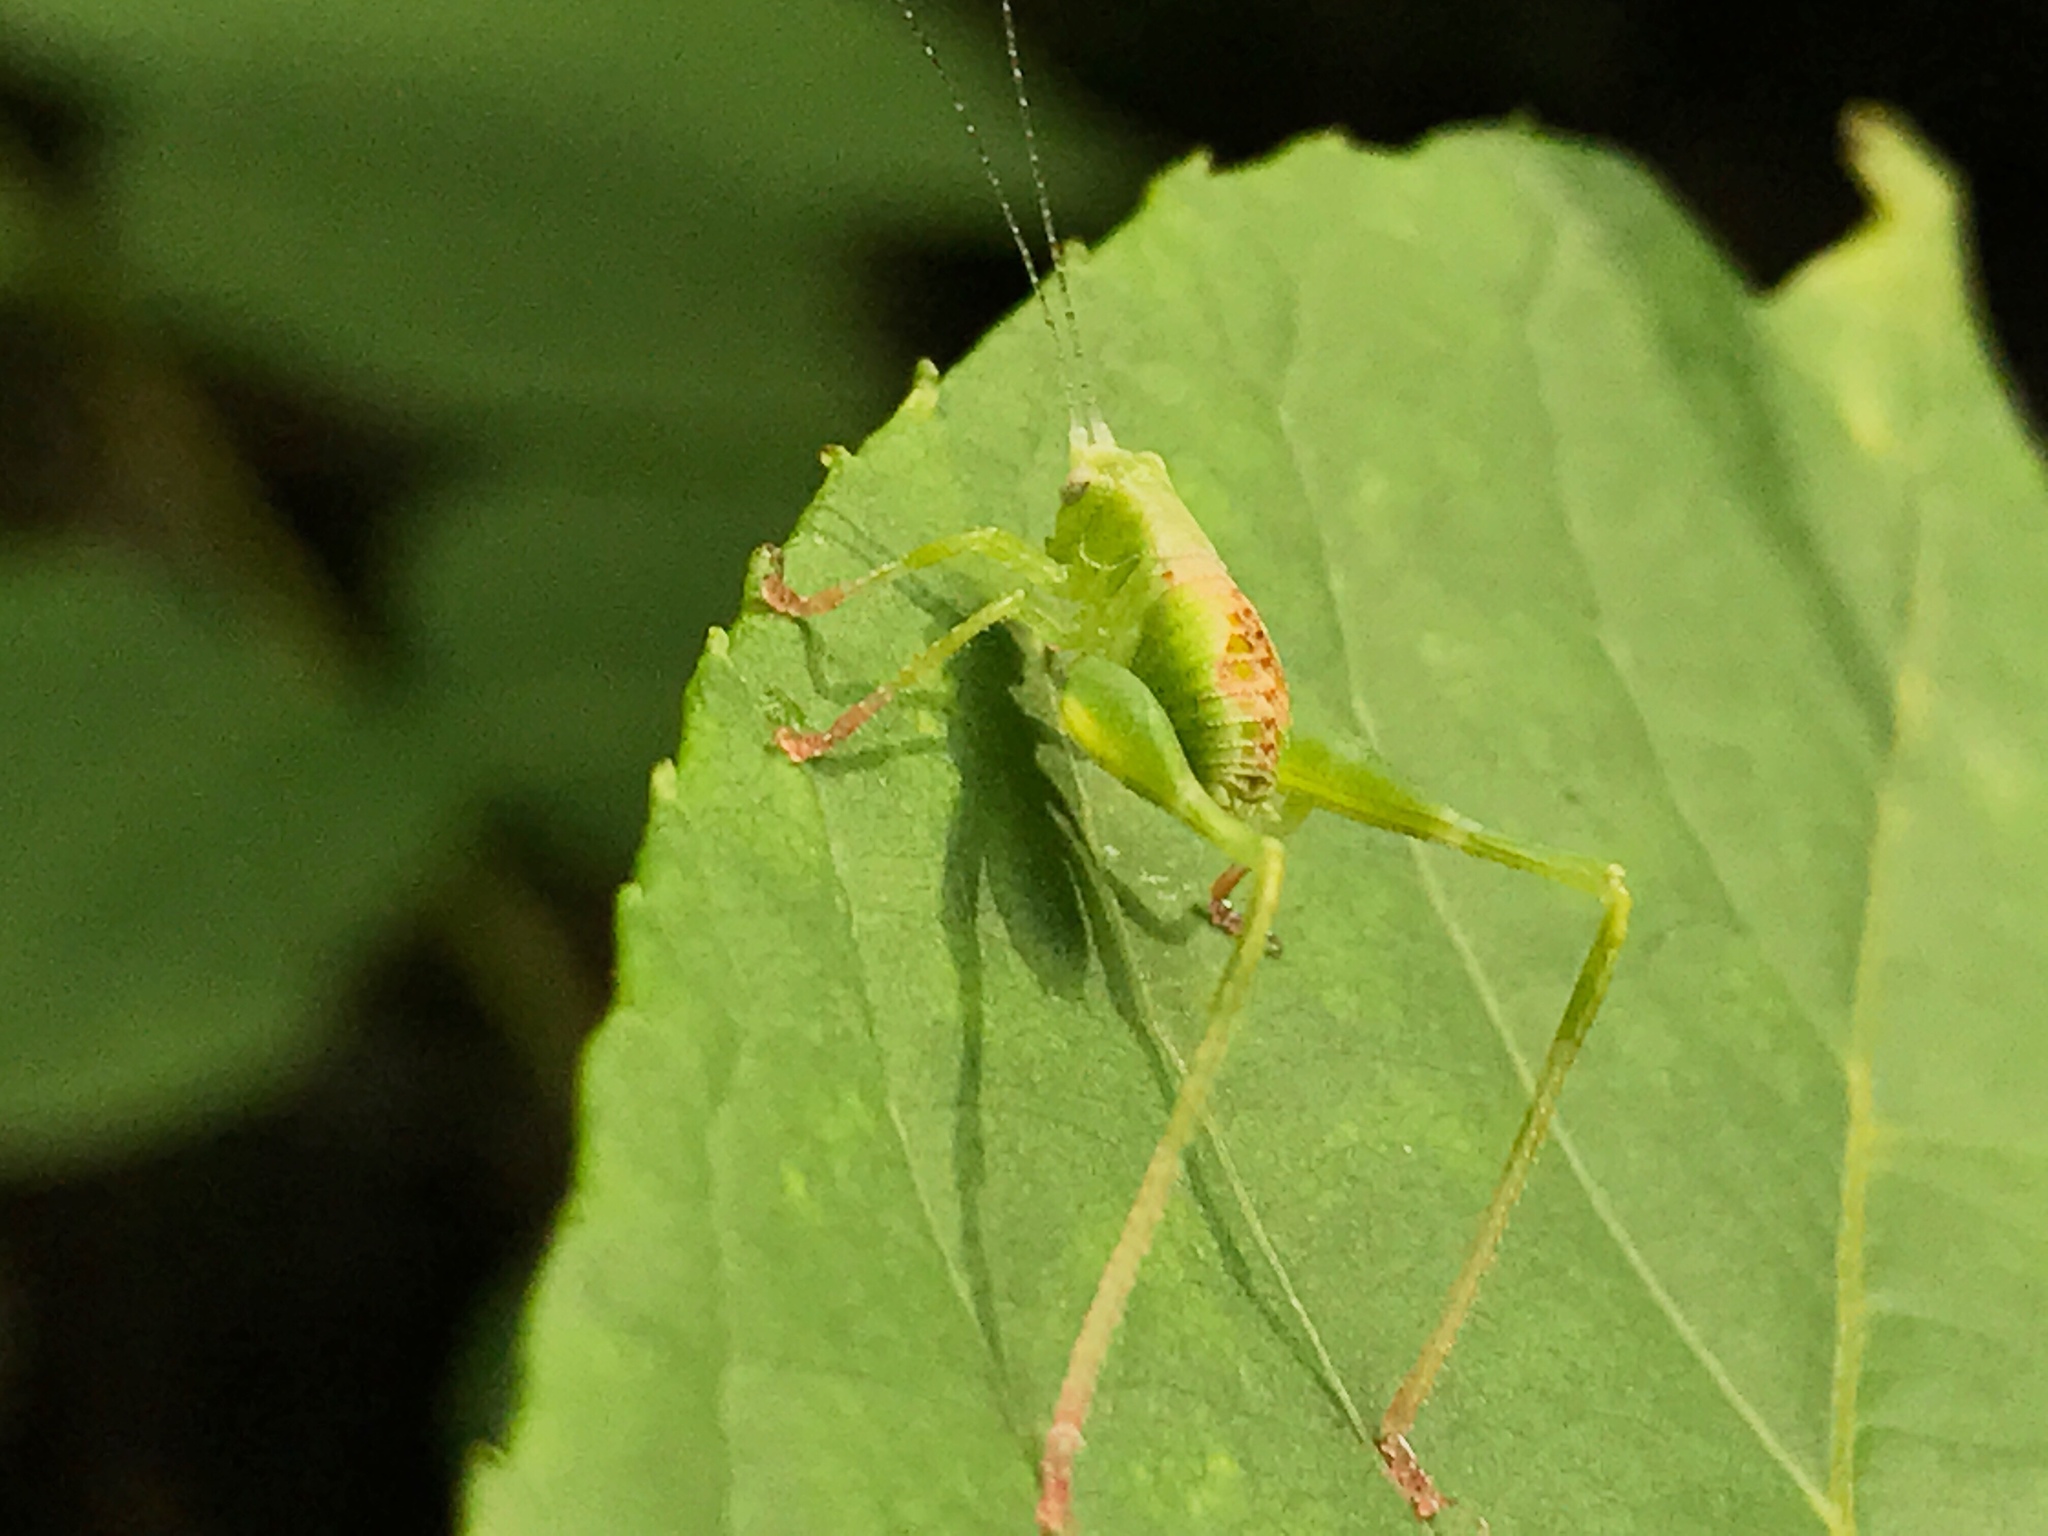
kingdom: Animalia
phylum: Arthropoda
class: Insecta
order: Orthoptera
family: Tettigoniidae
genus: Montezumina
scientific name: Montezumina modesta
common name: Modest katydid
